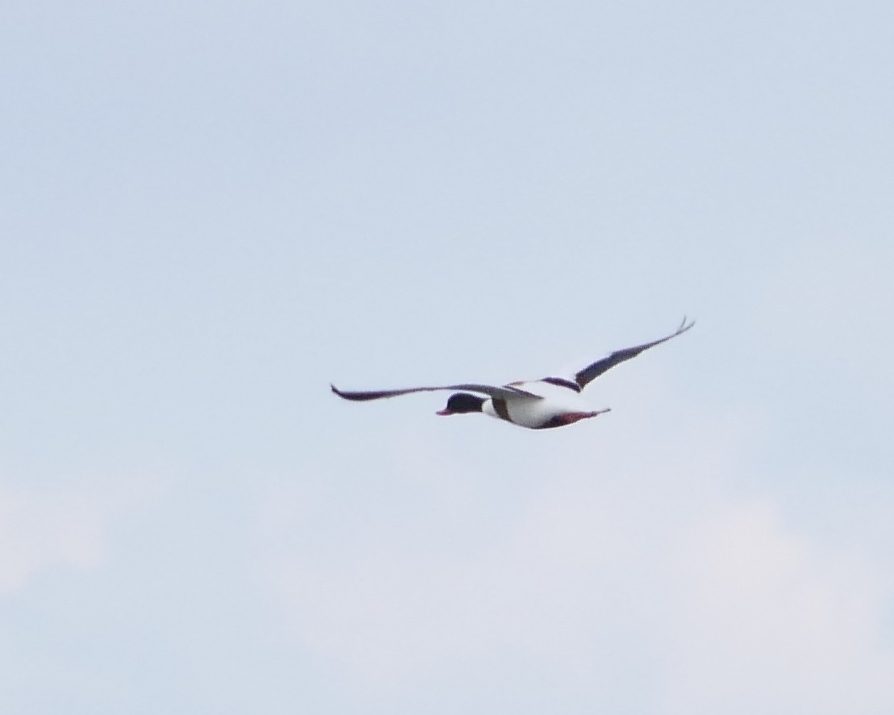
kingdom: Animalia
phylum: Chordata
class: Aves
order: Anseriformes
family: Anatidae
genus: Tadorna
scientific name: Tadorna tadorna
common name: Common shelduck
